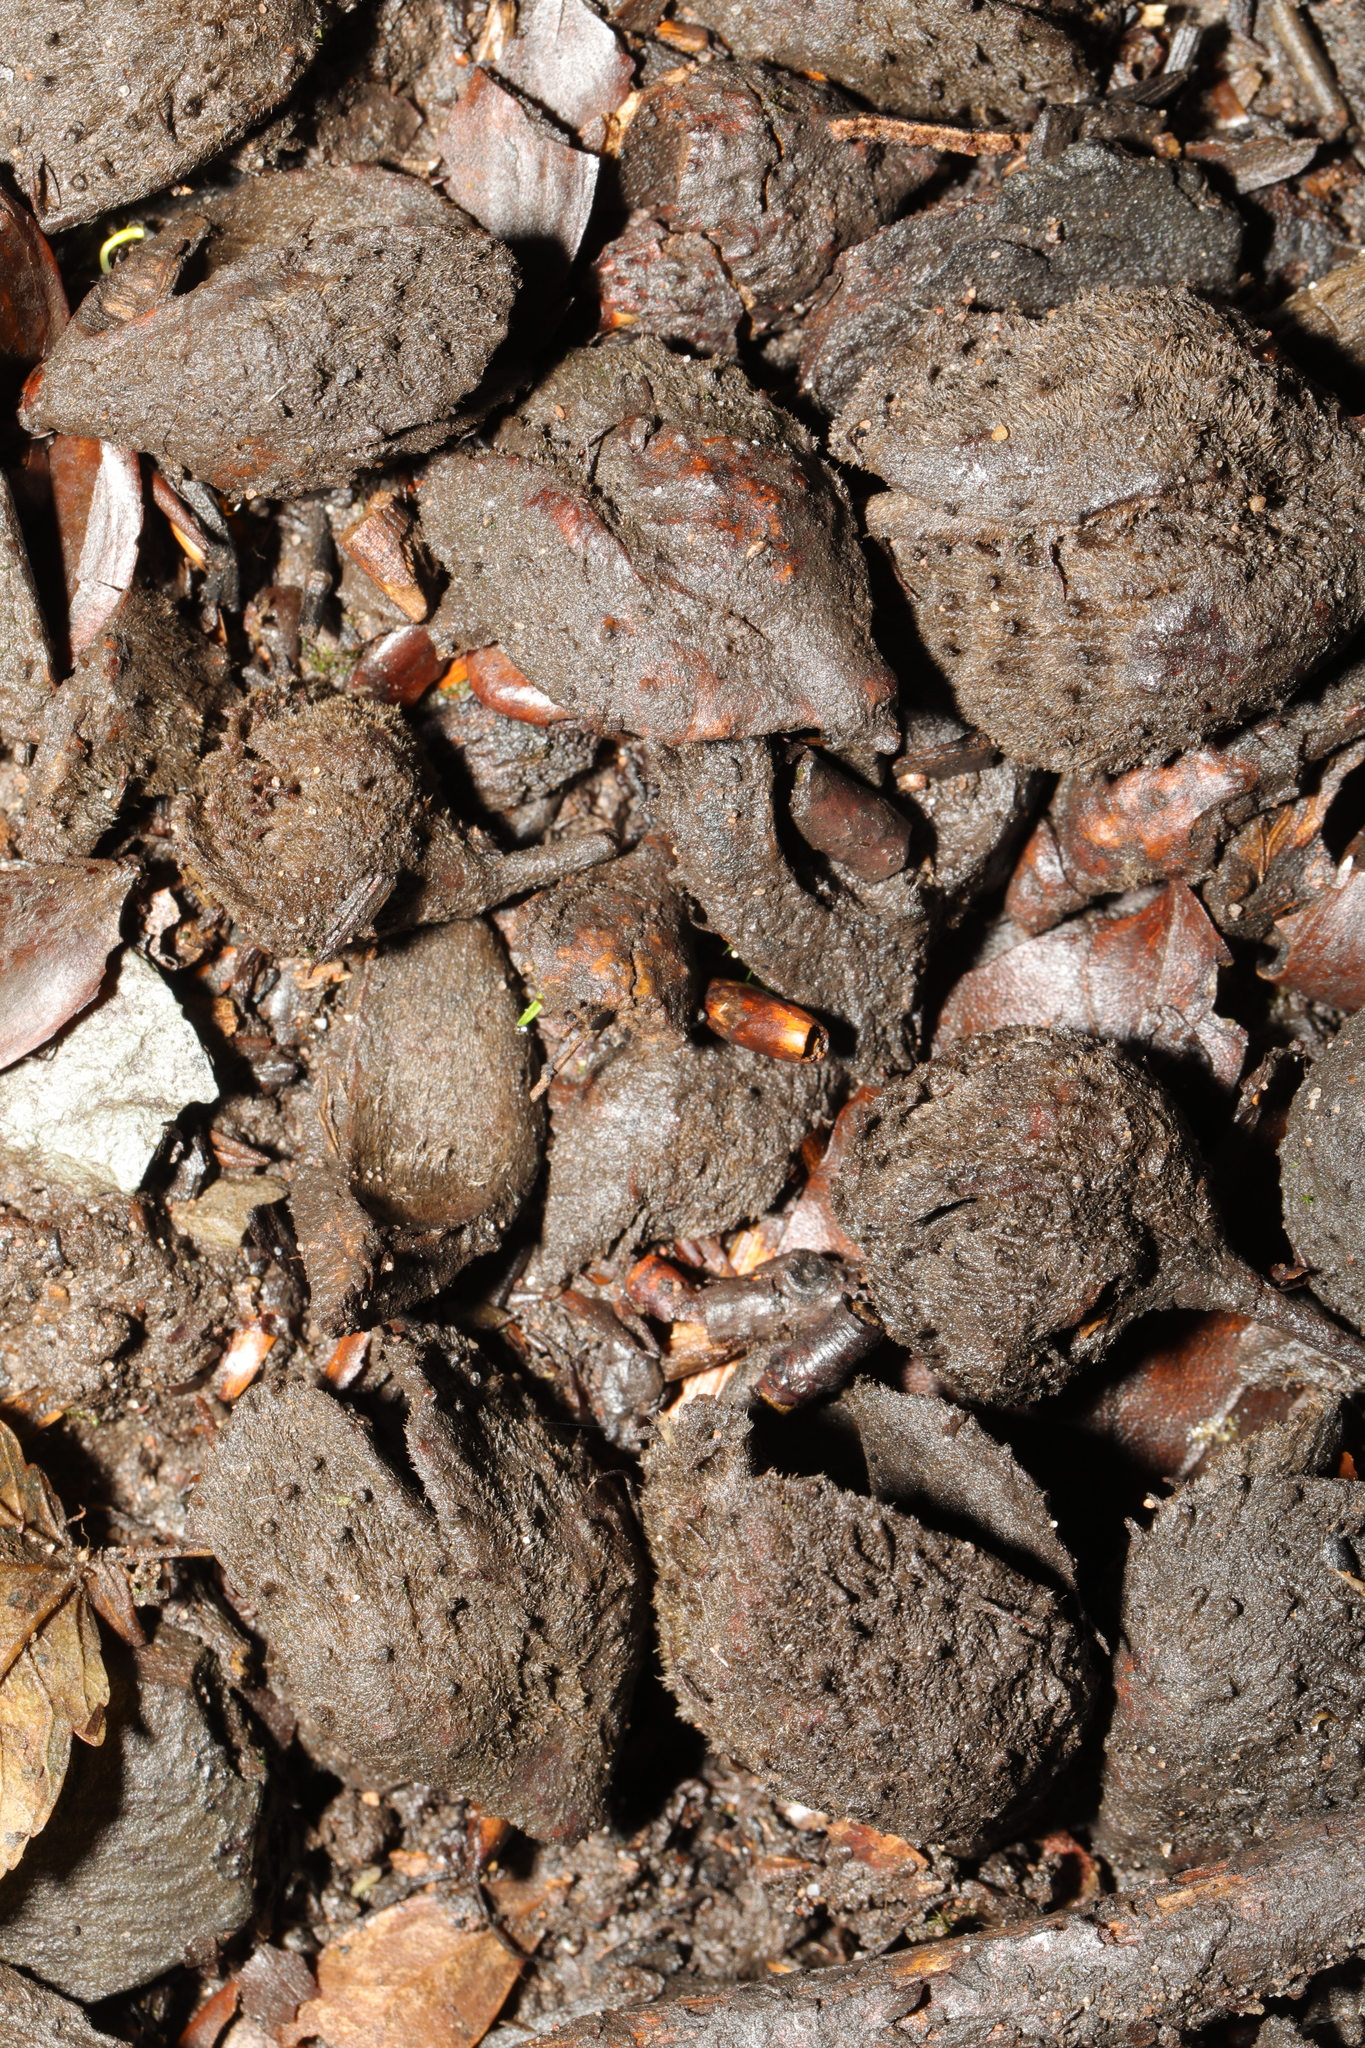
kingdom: Plantae
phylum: Tracheophyta
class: Magnoliopsida
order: Fagales
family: Fagaceae
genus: Fagus
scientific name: Fagus sylvatica
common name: Beech
